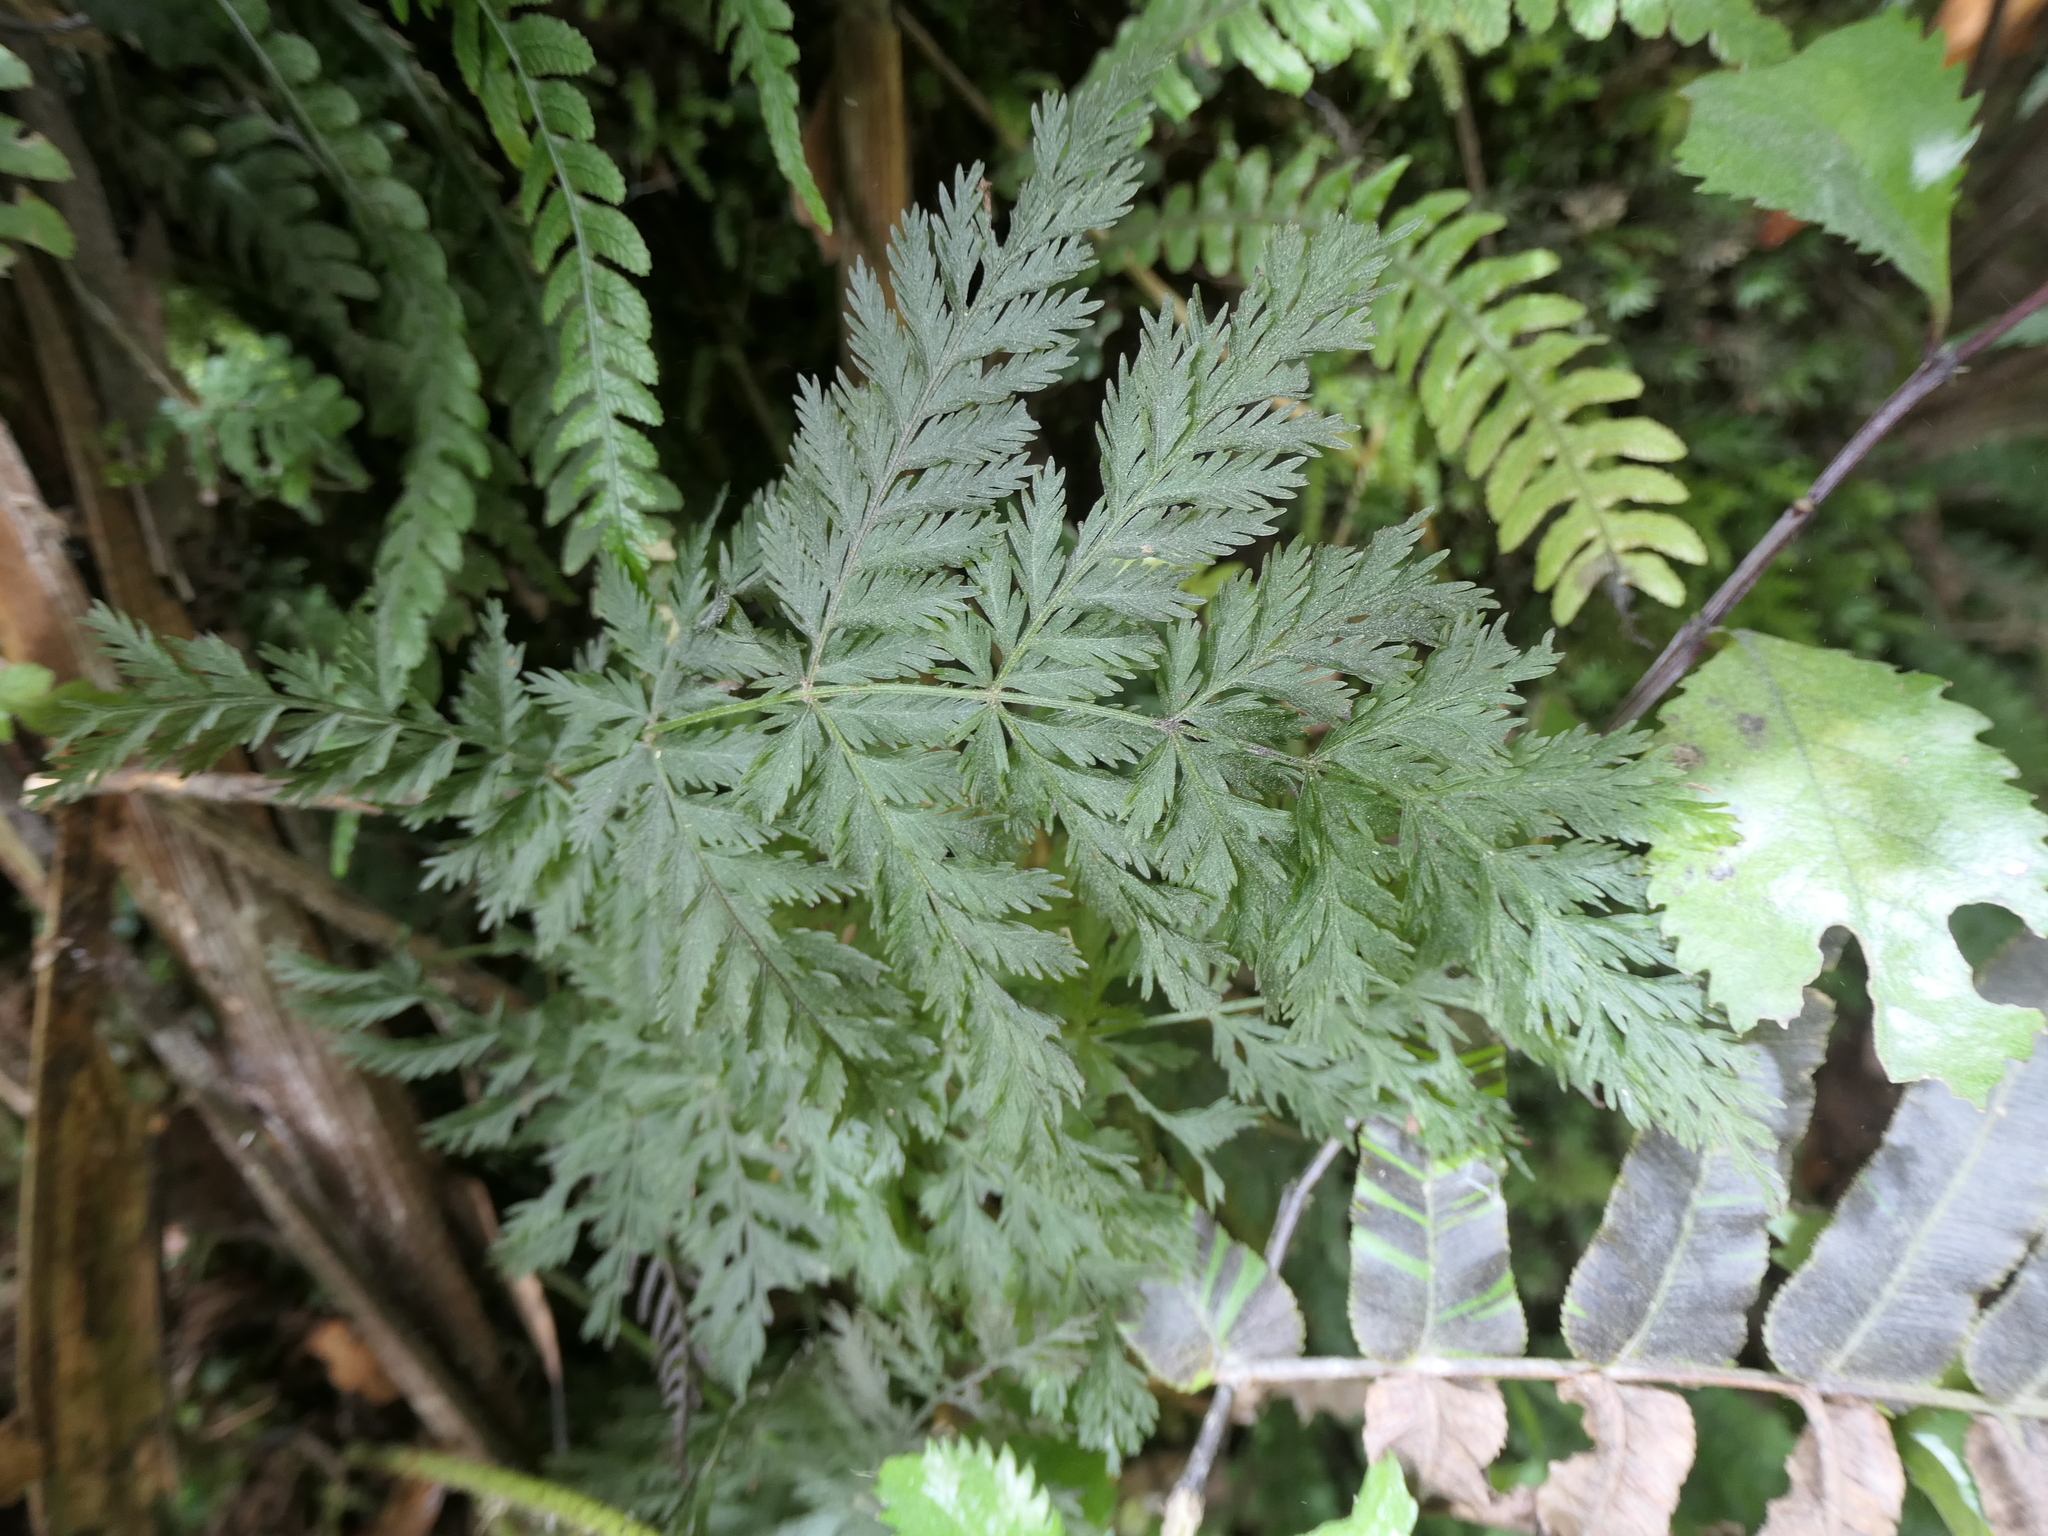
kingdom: Plantae
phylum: Tracheophyta
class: Polypodiopsida
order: Osmundales
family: Osmundaceae
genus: Leptopteris
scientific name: Leptopteris hymenophylloides
